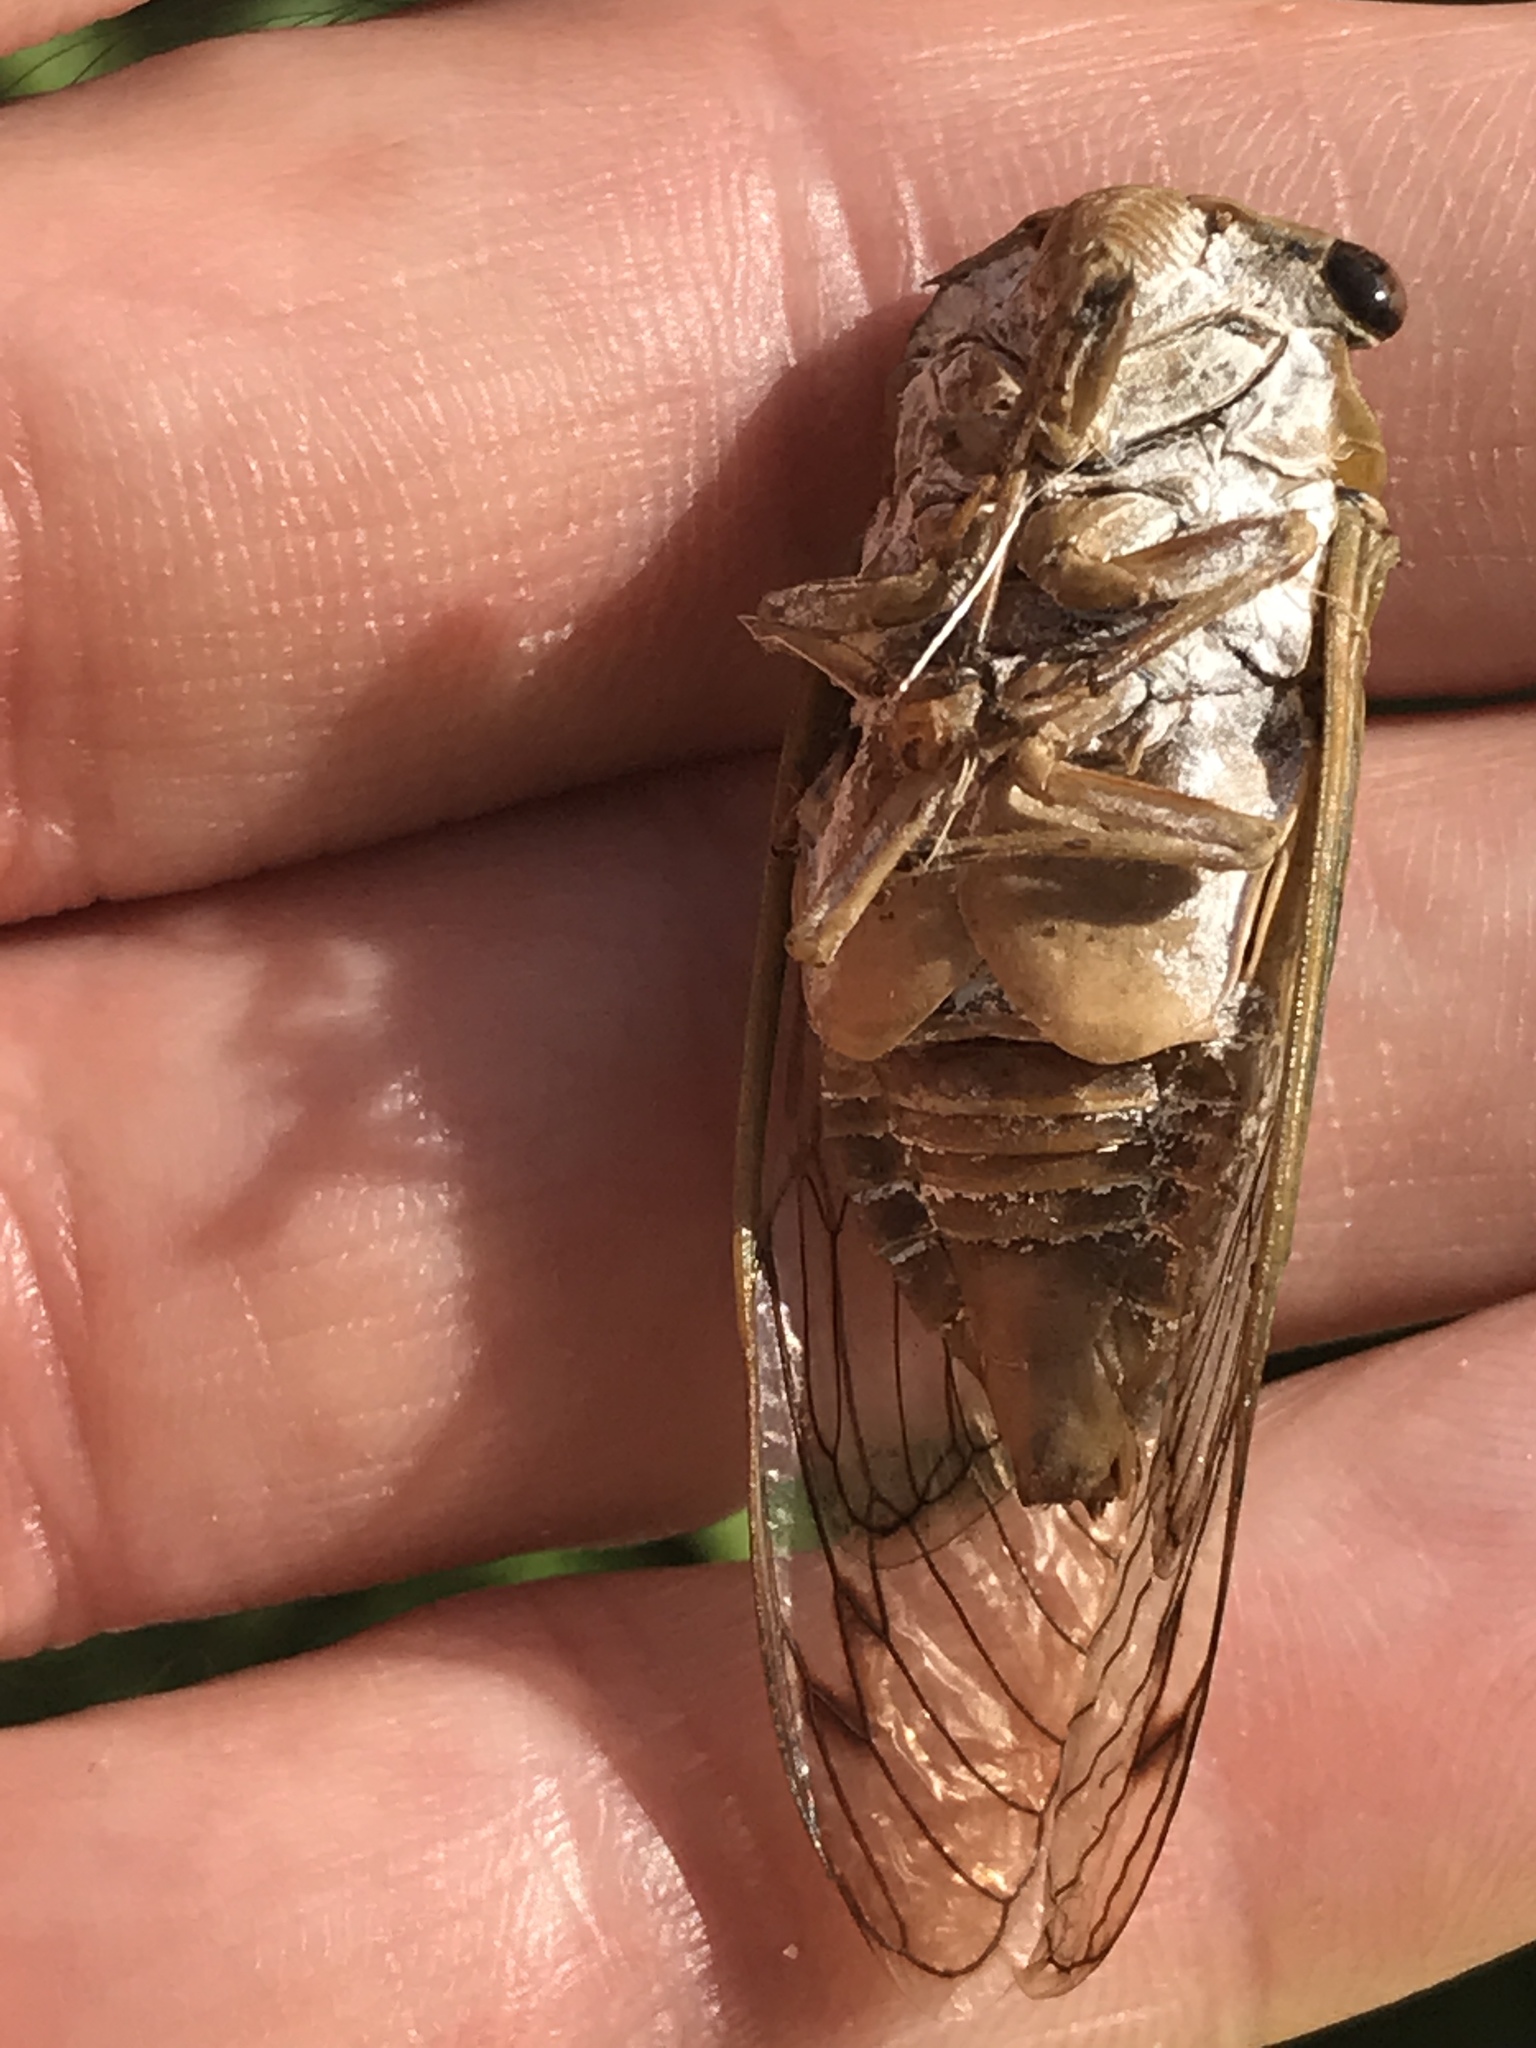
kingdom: Animalia
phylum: Arthropoda
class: Insecta
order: Hemiptera
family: Cicadidae
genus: Neotibicen
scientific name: Neotibicen superbus
